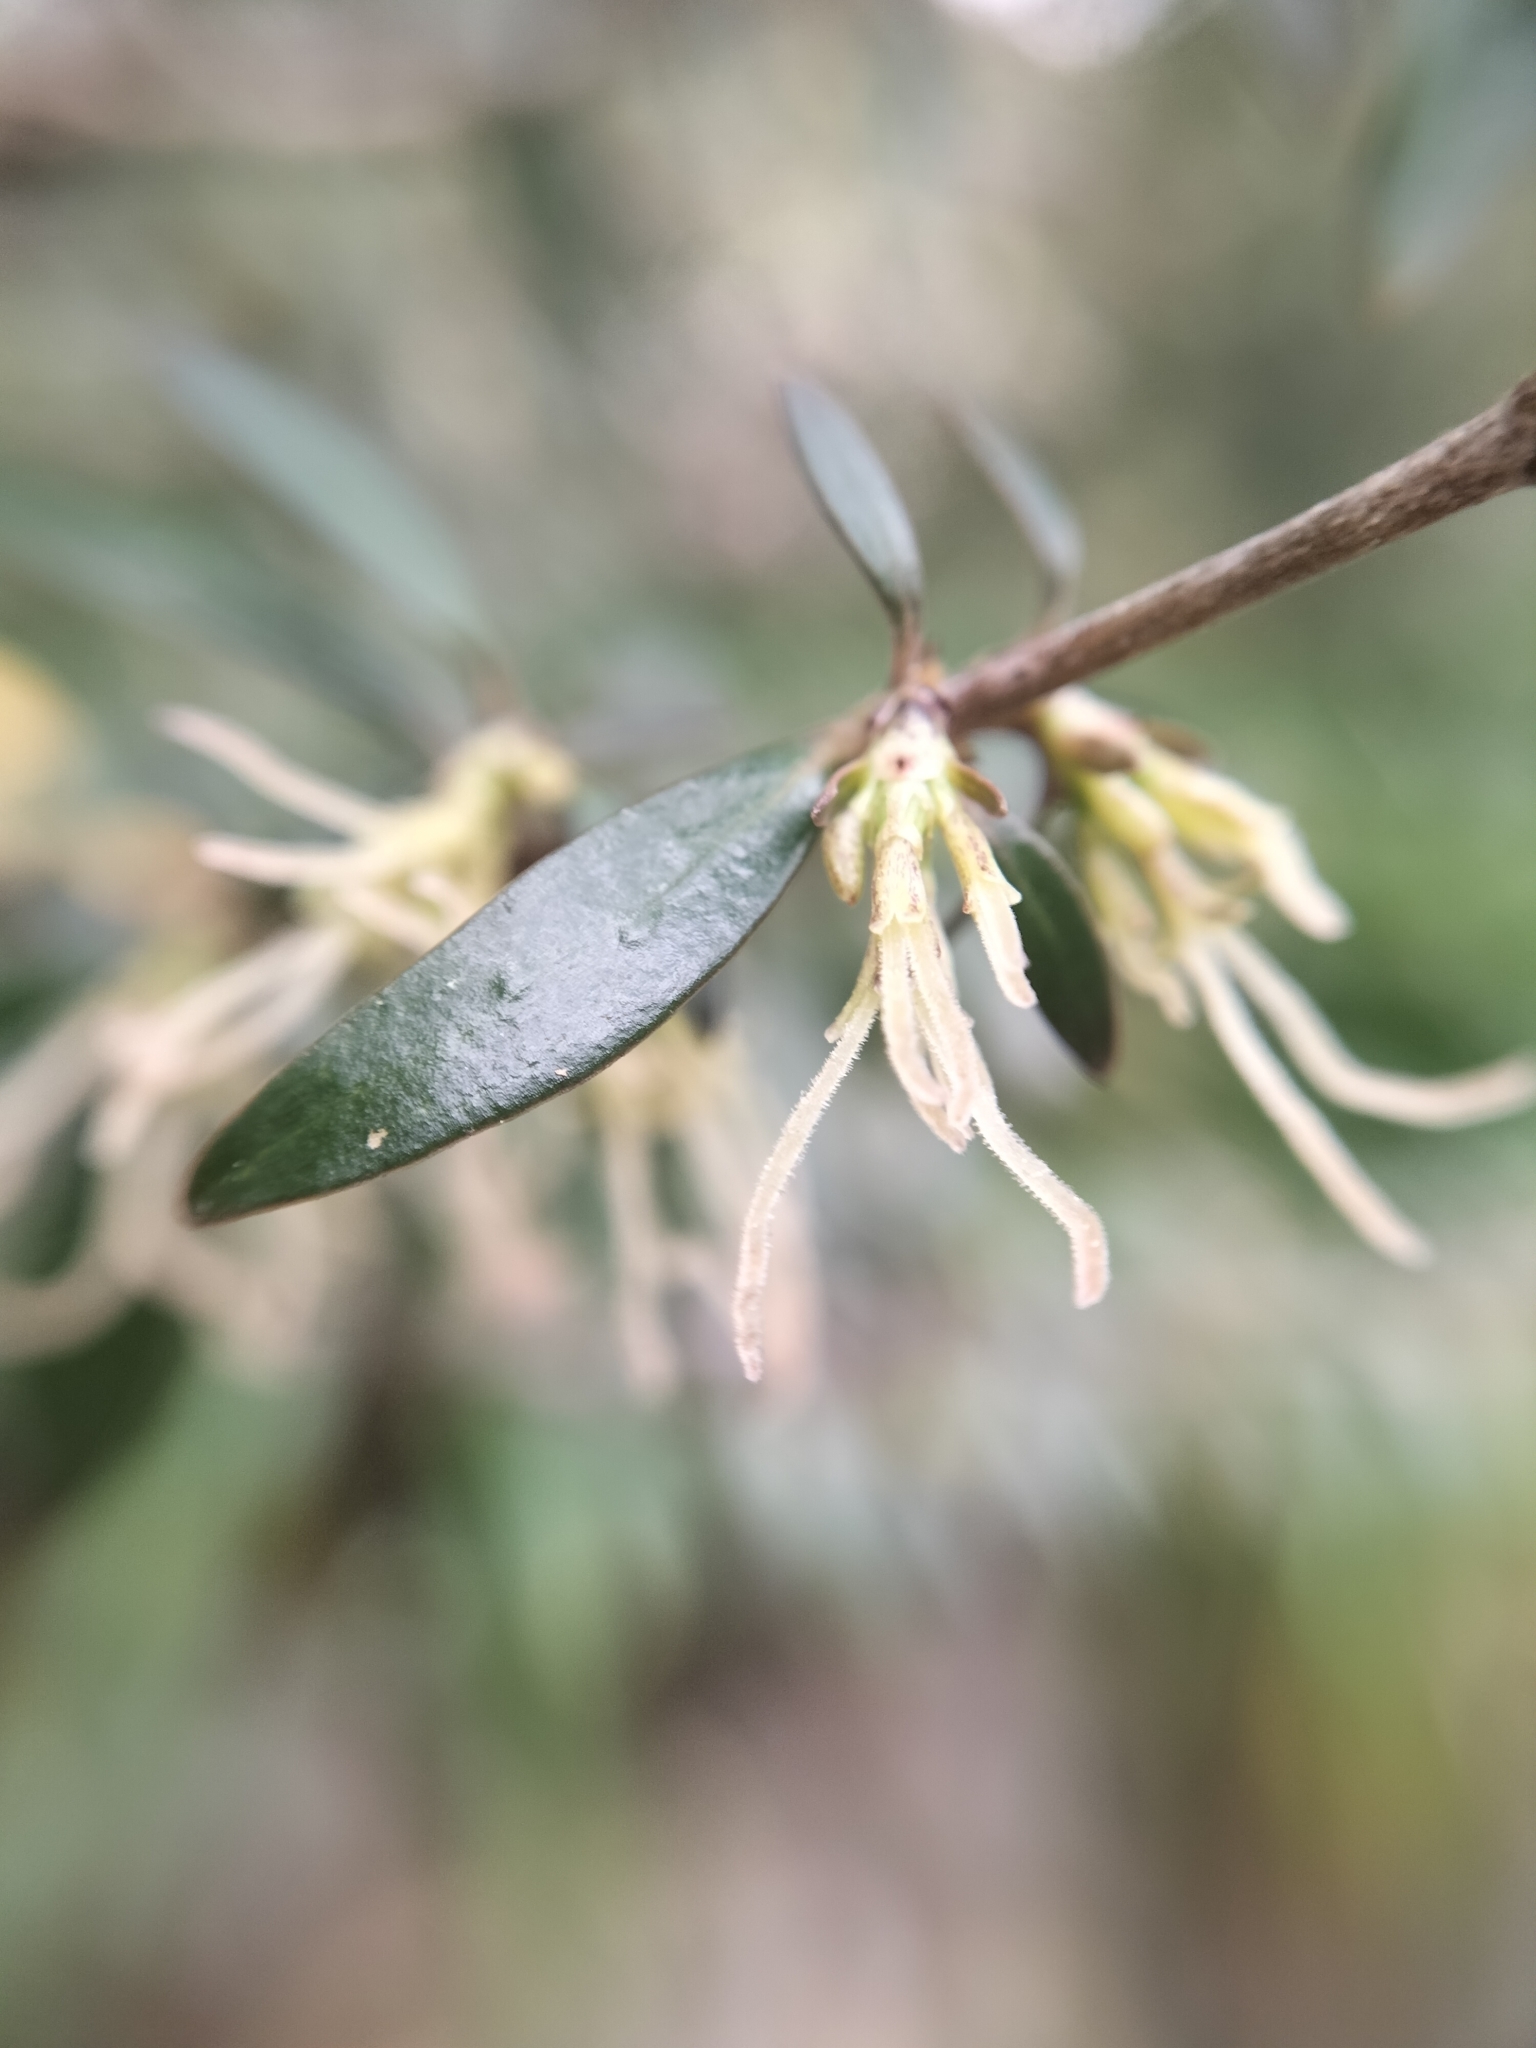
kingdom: Plantae
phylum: Tracheophyta
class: Magnoliopsida
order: Gentianales
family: Rubiaceae
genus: Coprosma
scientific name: Coprosma propinqua
